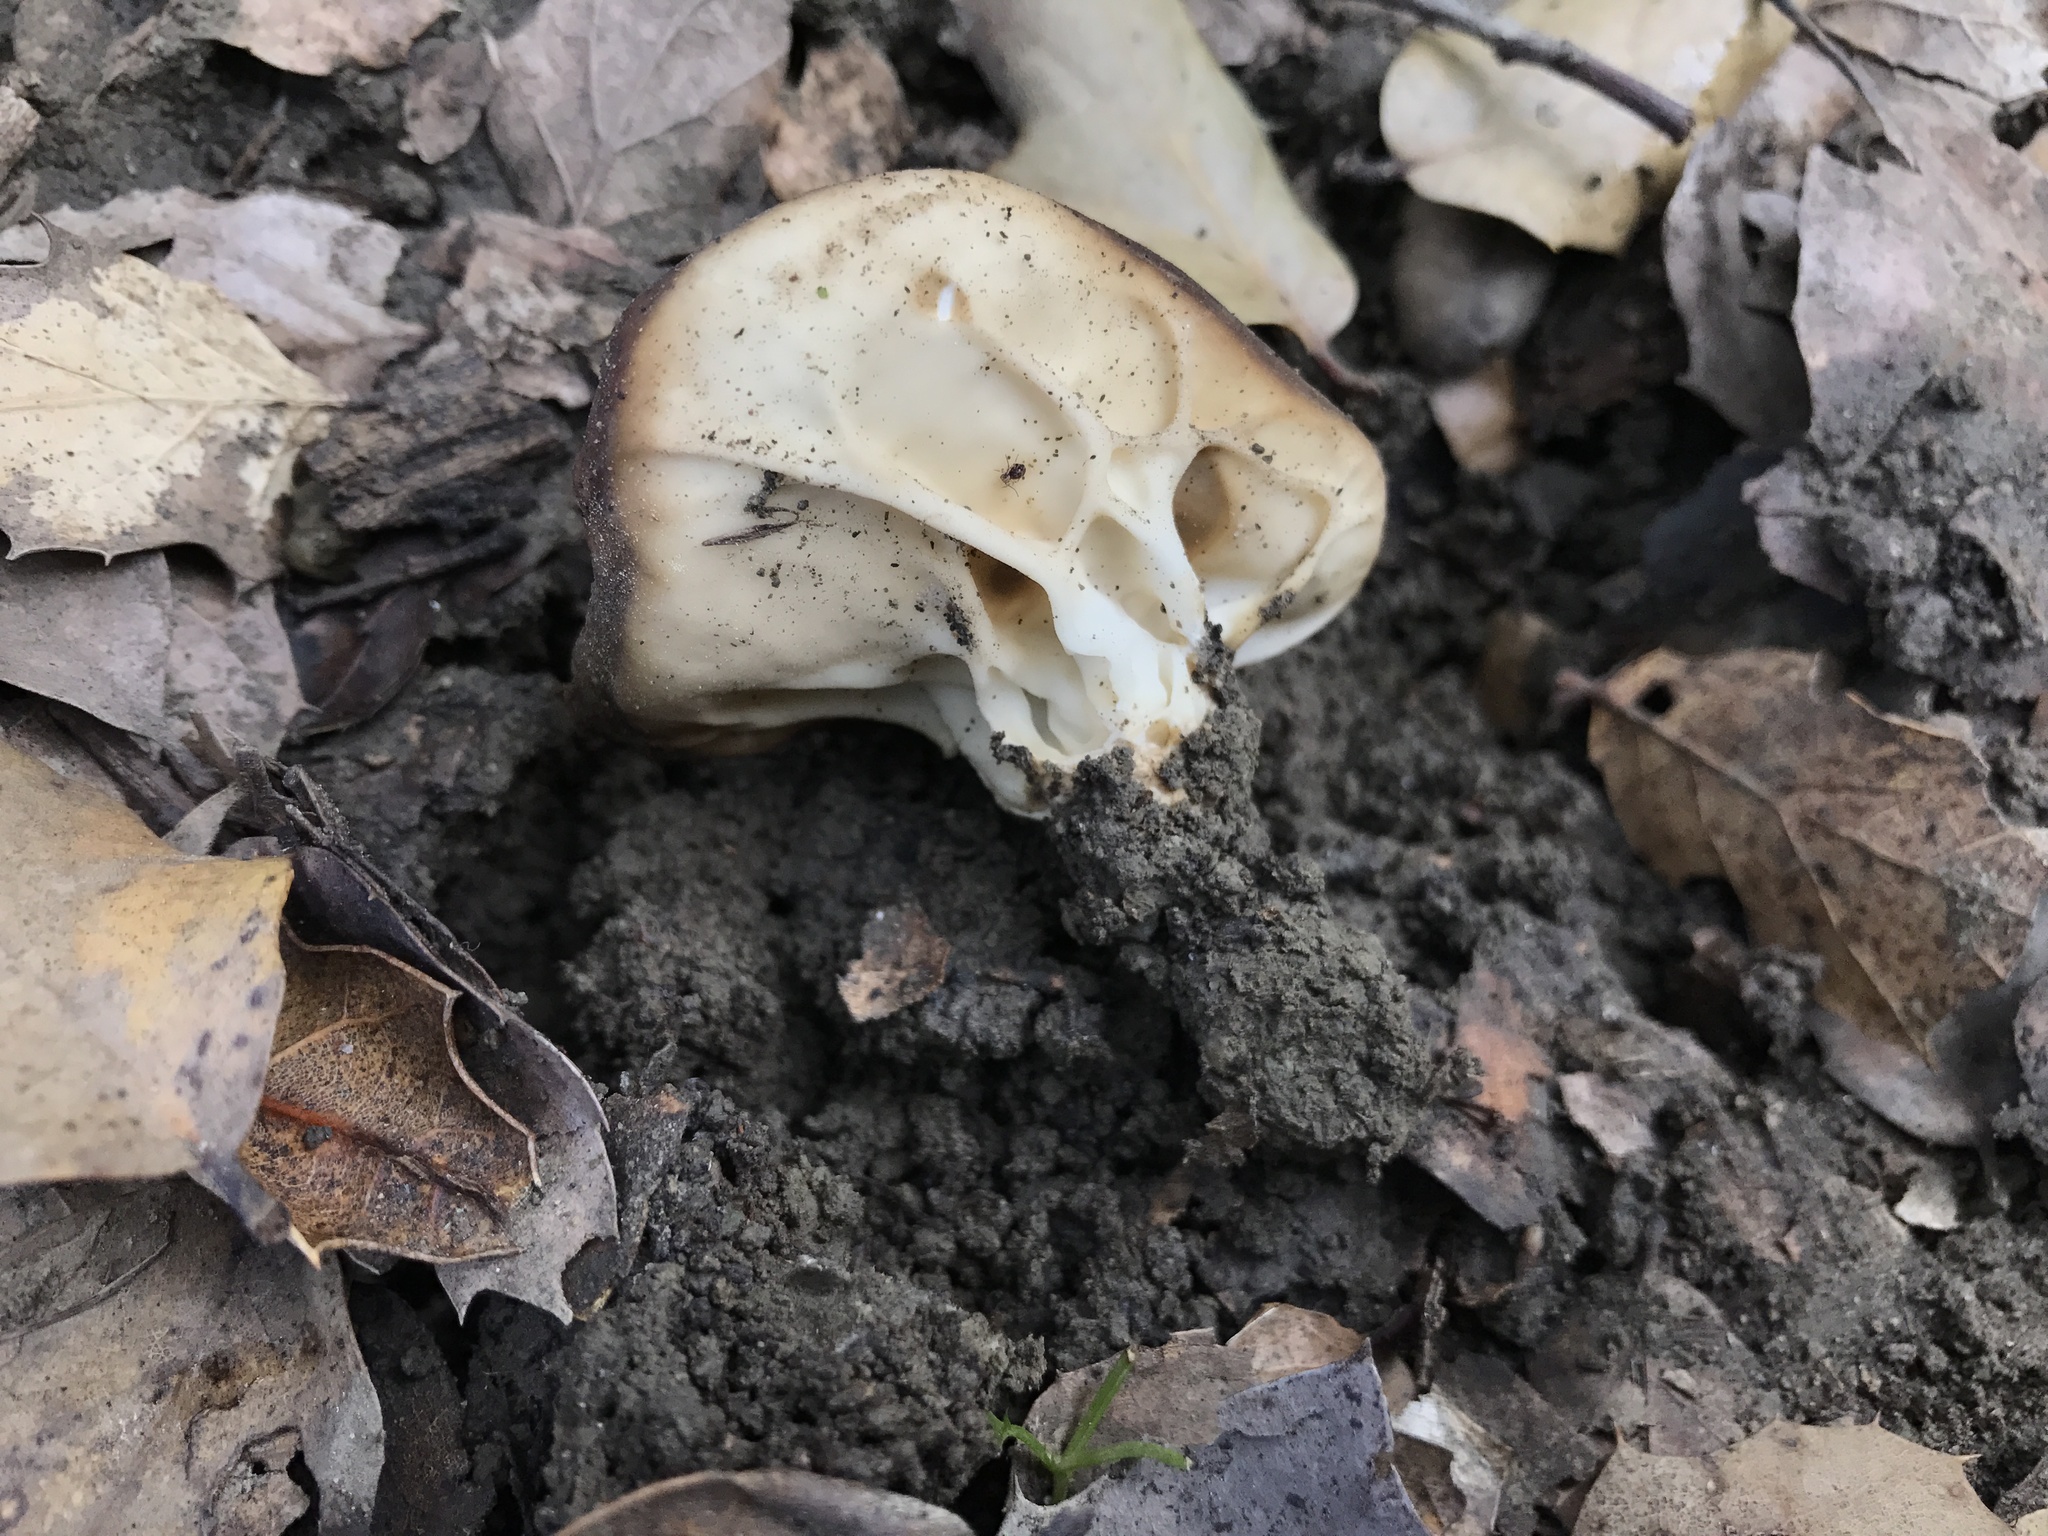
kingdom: Fungi
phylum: Ascomycota
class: Pezizomycetes
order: Pezizales
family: Helvellaceae
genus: Helvella
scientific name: Helvella acetabulum
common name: Vinegar cup
